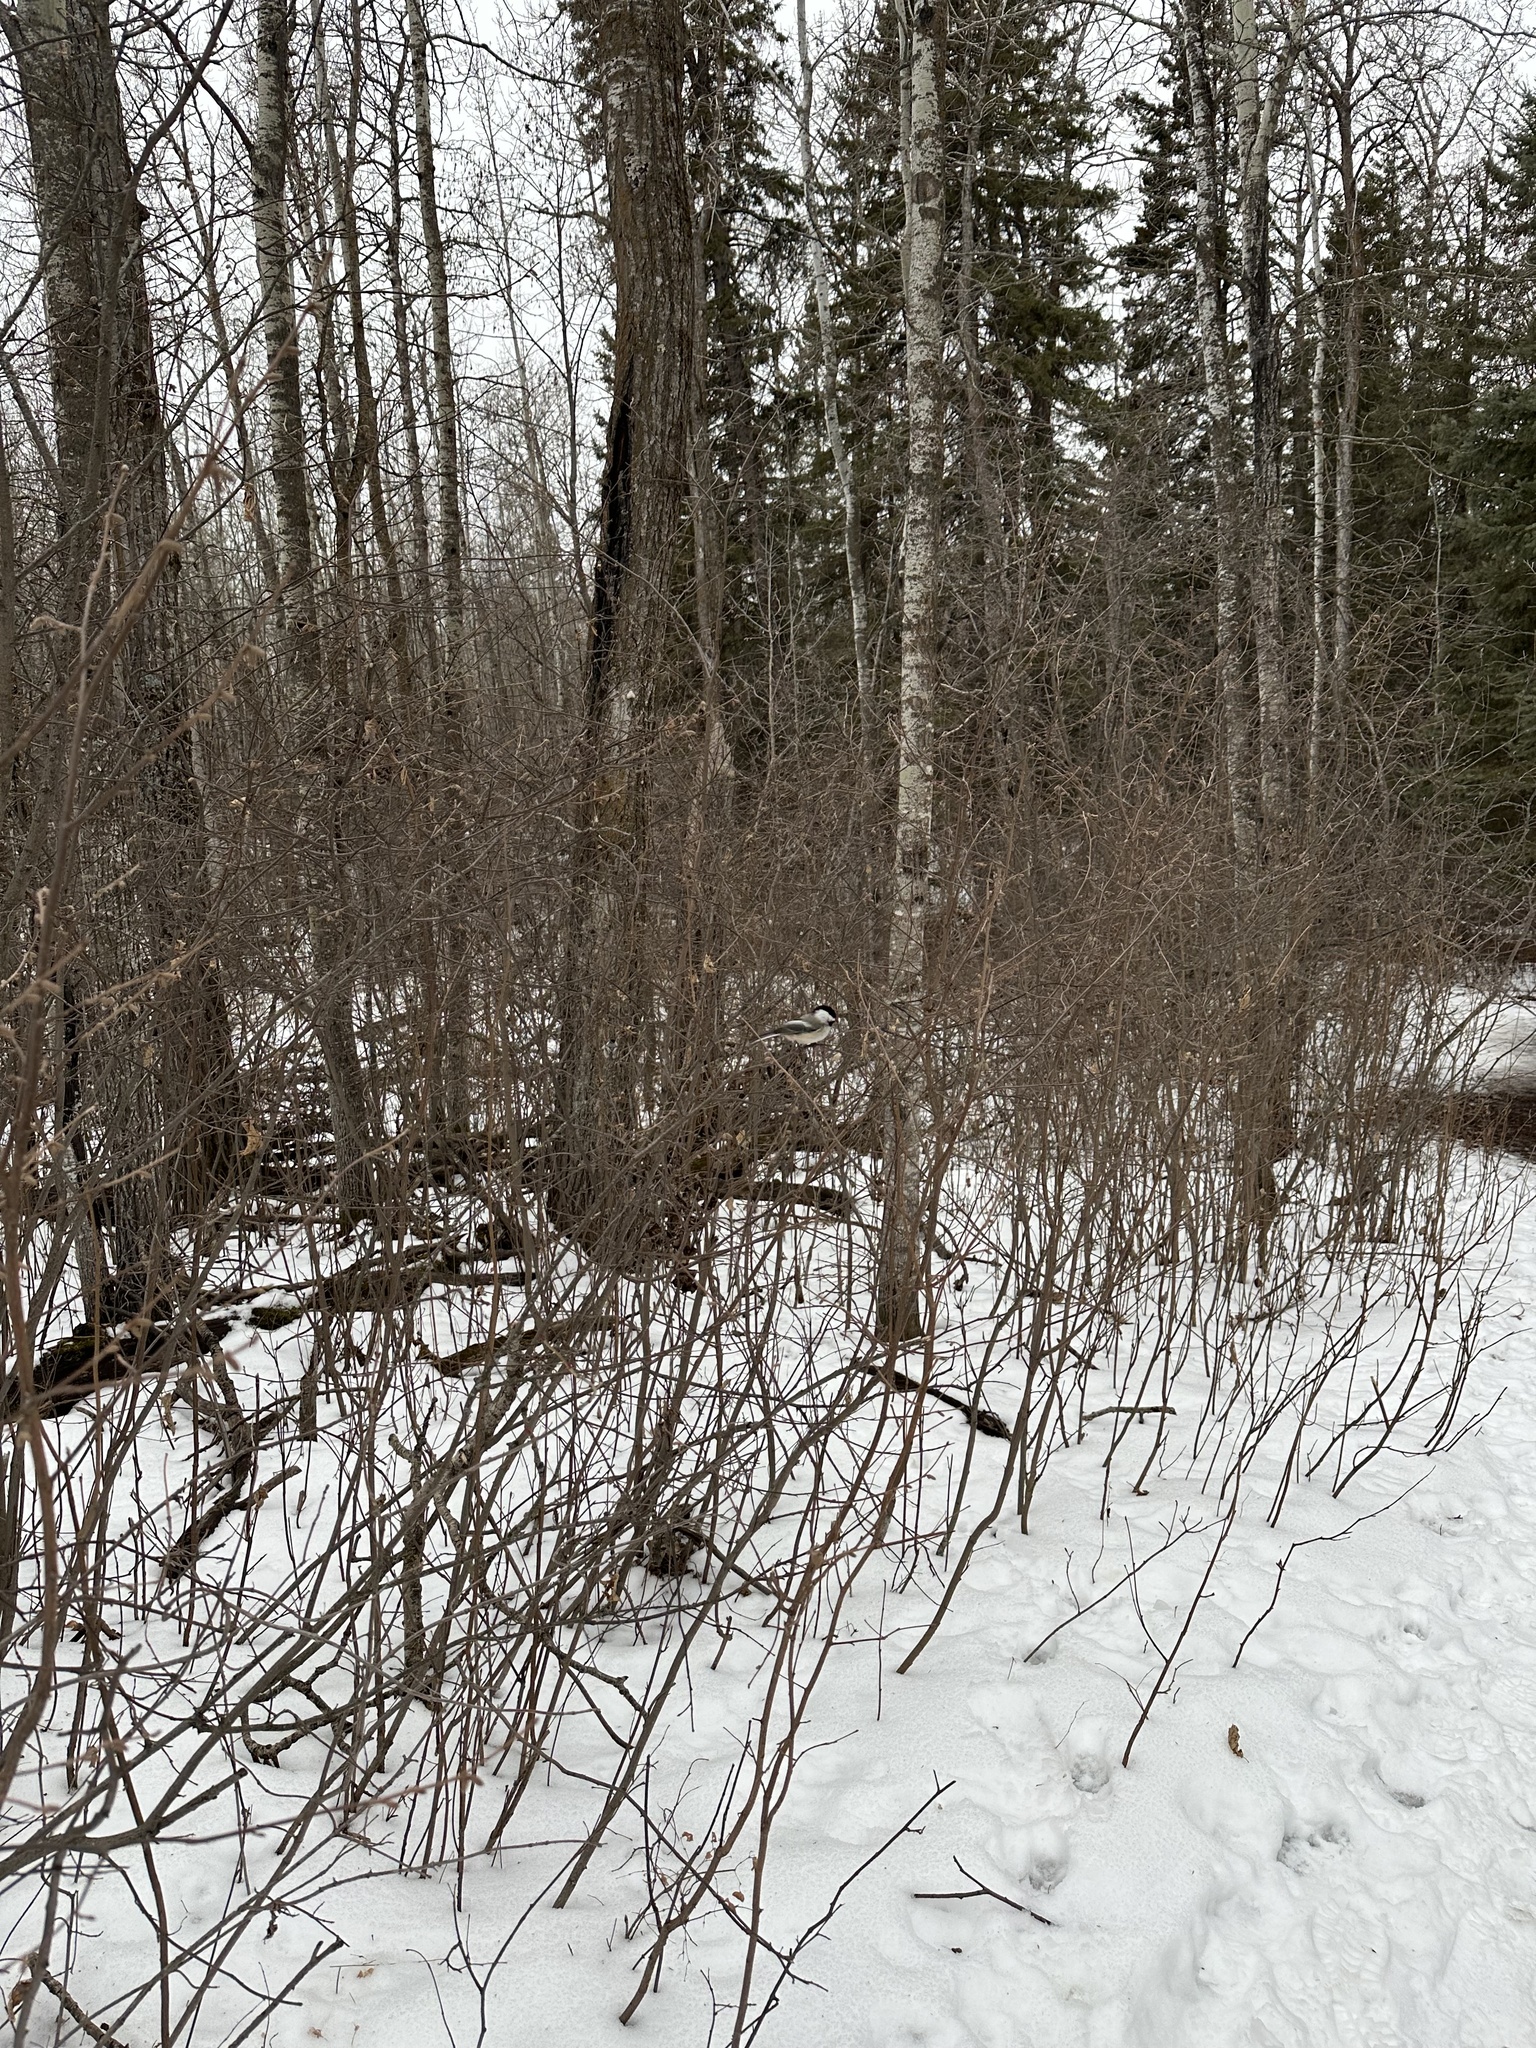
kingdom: Animalia
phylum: Chordata
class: Aves
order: Passeriformes
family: Paridae
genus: Poecile
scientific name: Poecile atricapillus
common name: Black-capped chickadee
